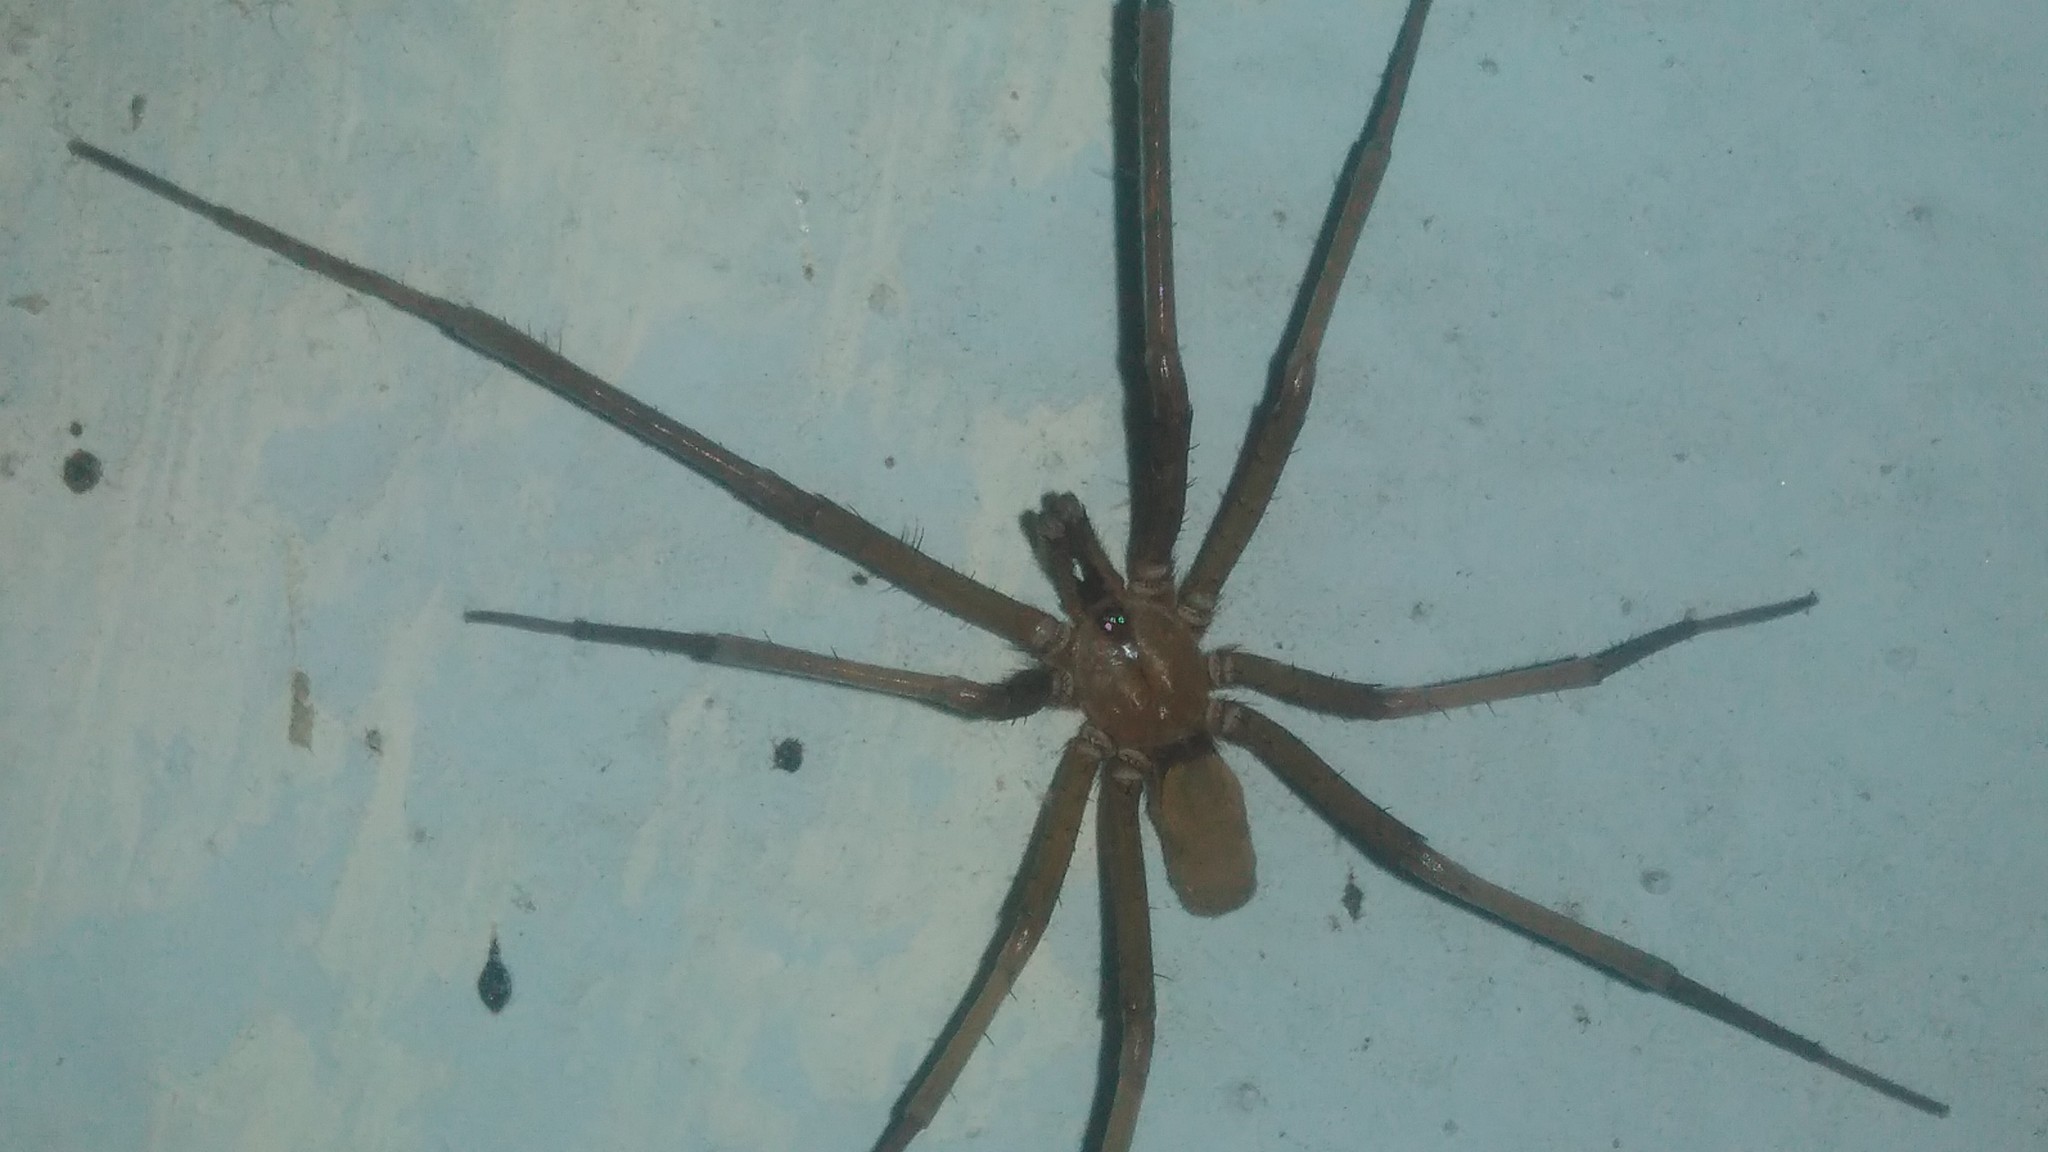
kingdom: Animalia
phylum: Arthropoda
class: Arachnida
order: Araneae
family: Filistatidae
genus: Kukulcania
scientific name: Kukulcania hibernalis
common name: Crevice weaver
